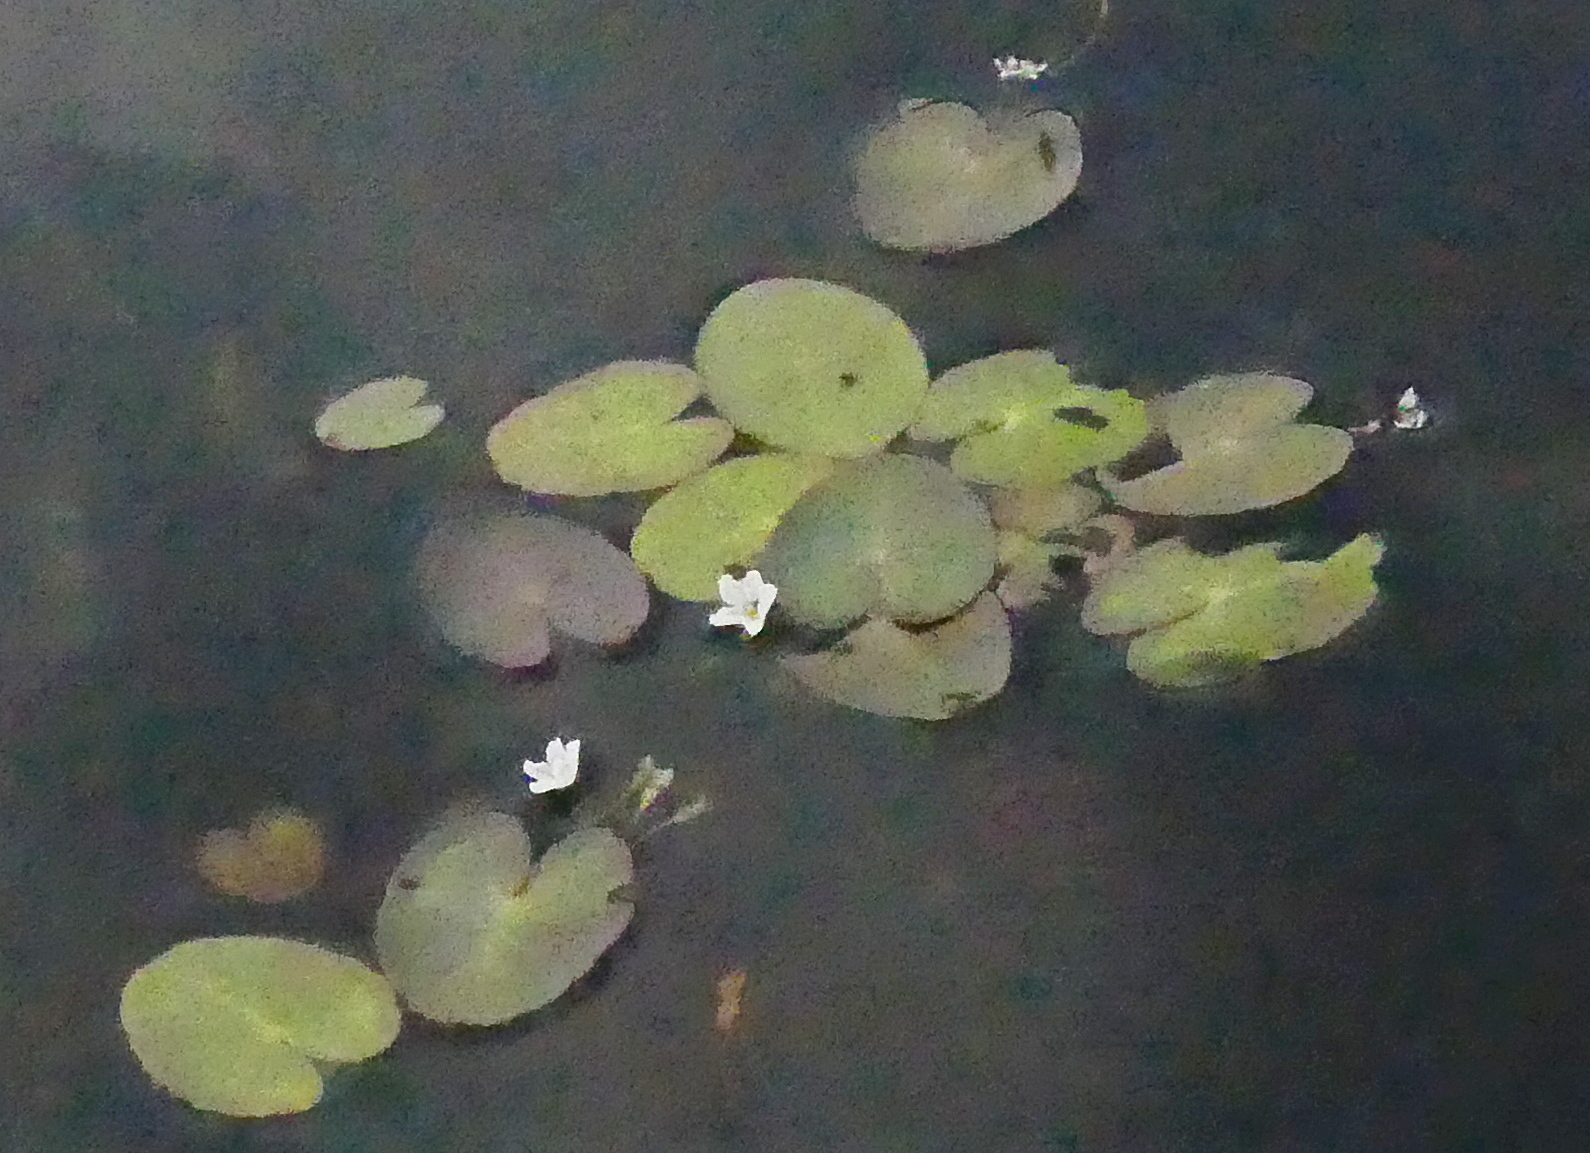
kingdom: Plantae
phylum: Tracheophyta
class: Magnoliopsida
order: Asterales
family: Menyanthaceae
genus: Nymphoides
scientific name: Nymphoides cordata
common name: Eight-angled floatingheart
